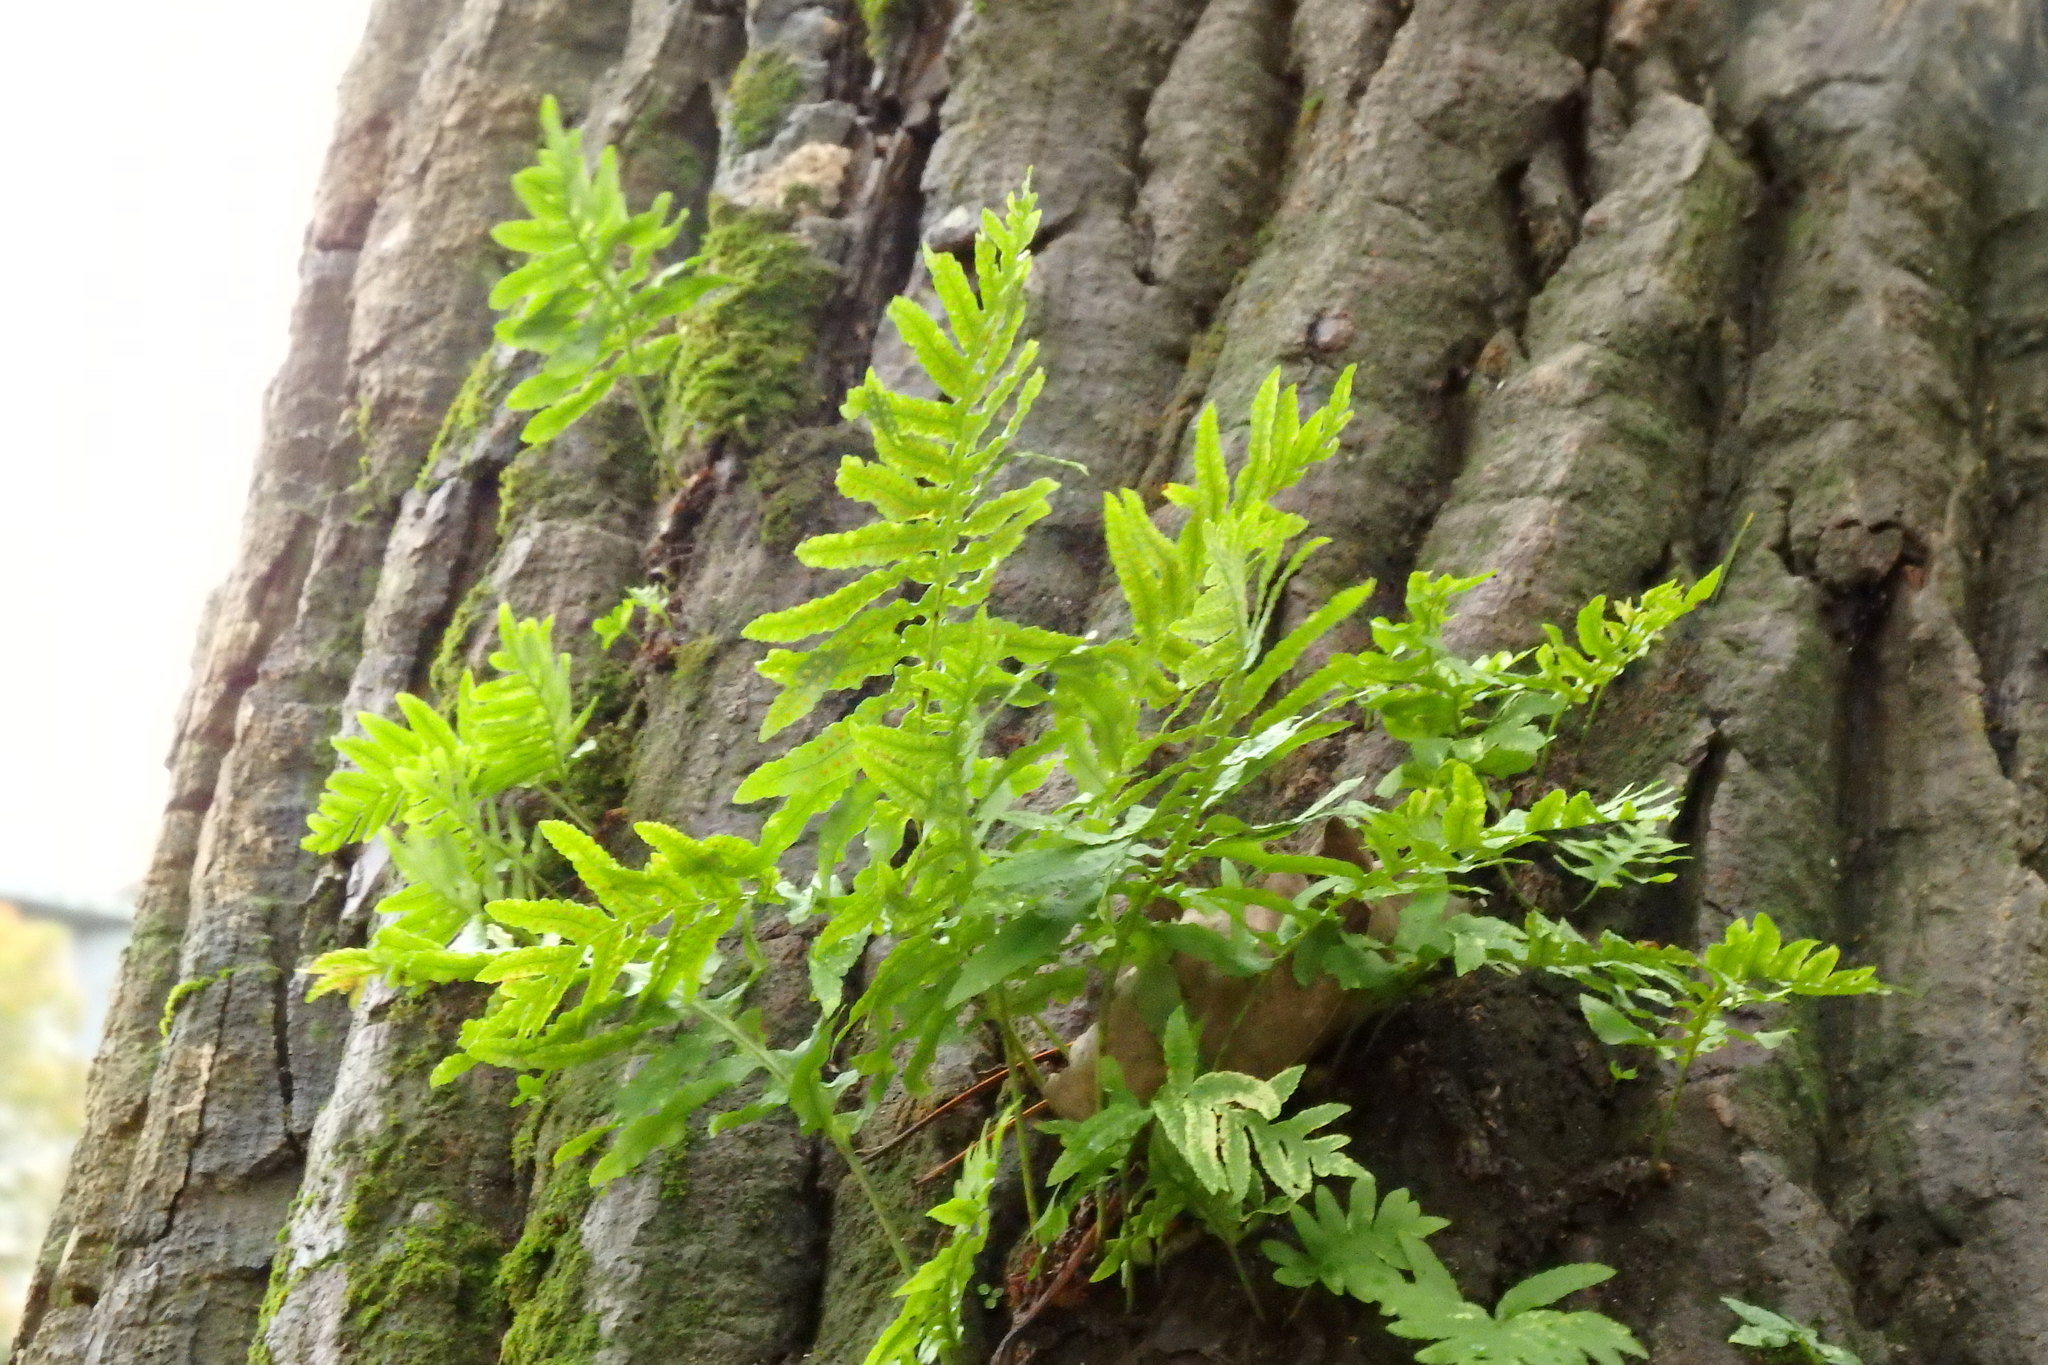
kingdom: Plantae
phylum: Tracheophyta
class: Polypodiopsida
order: Polypodiales
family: Polypodiaceae
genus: Polypodium
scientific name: Polypodium cambricum
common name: Southern polypody
